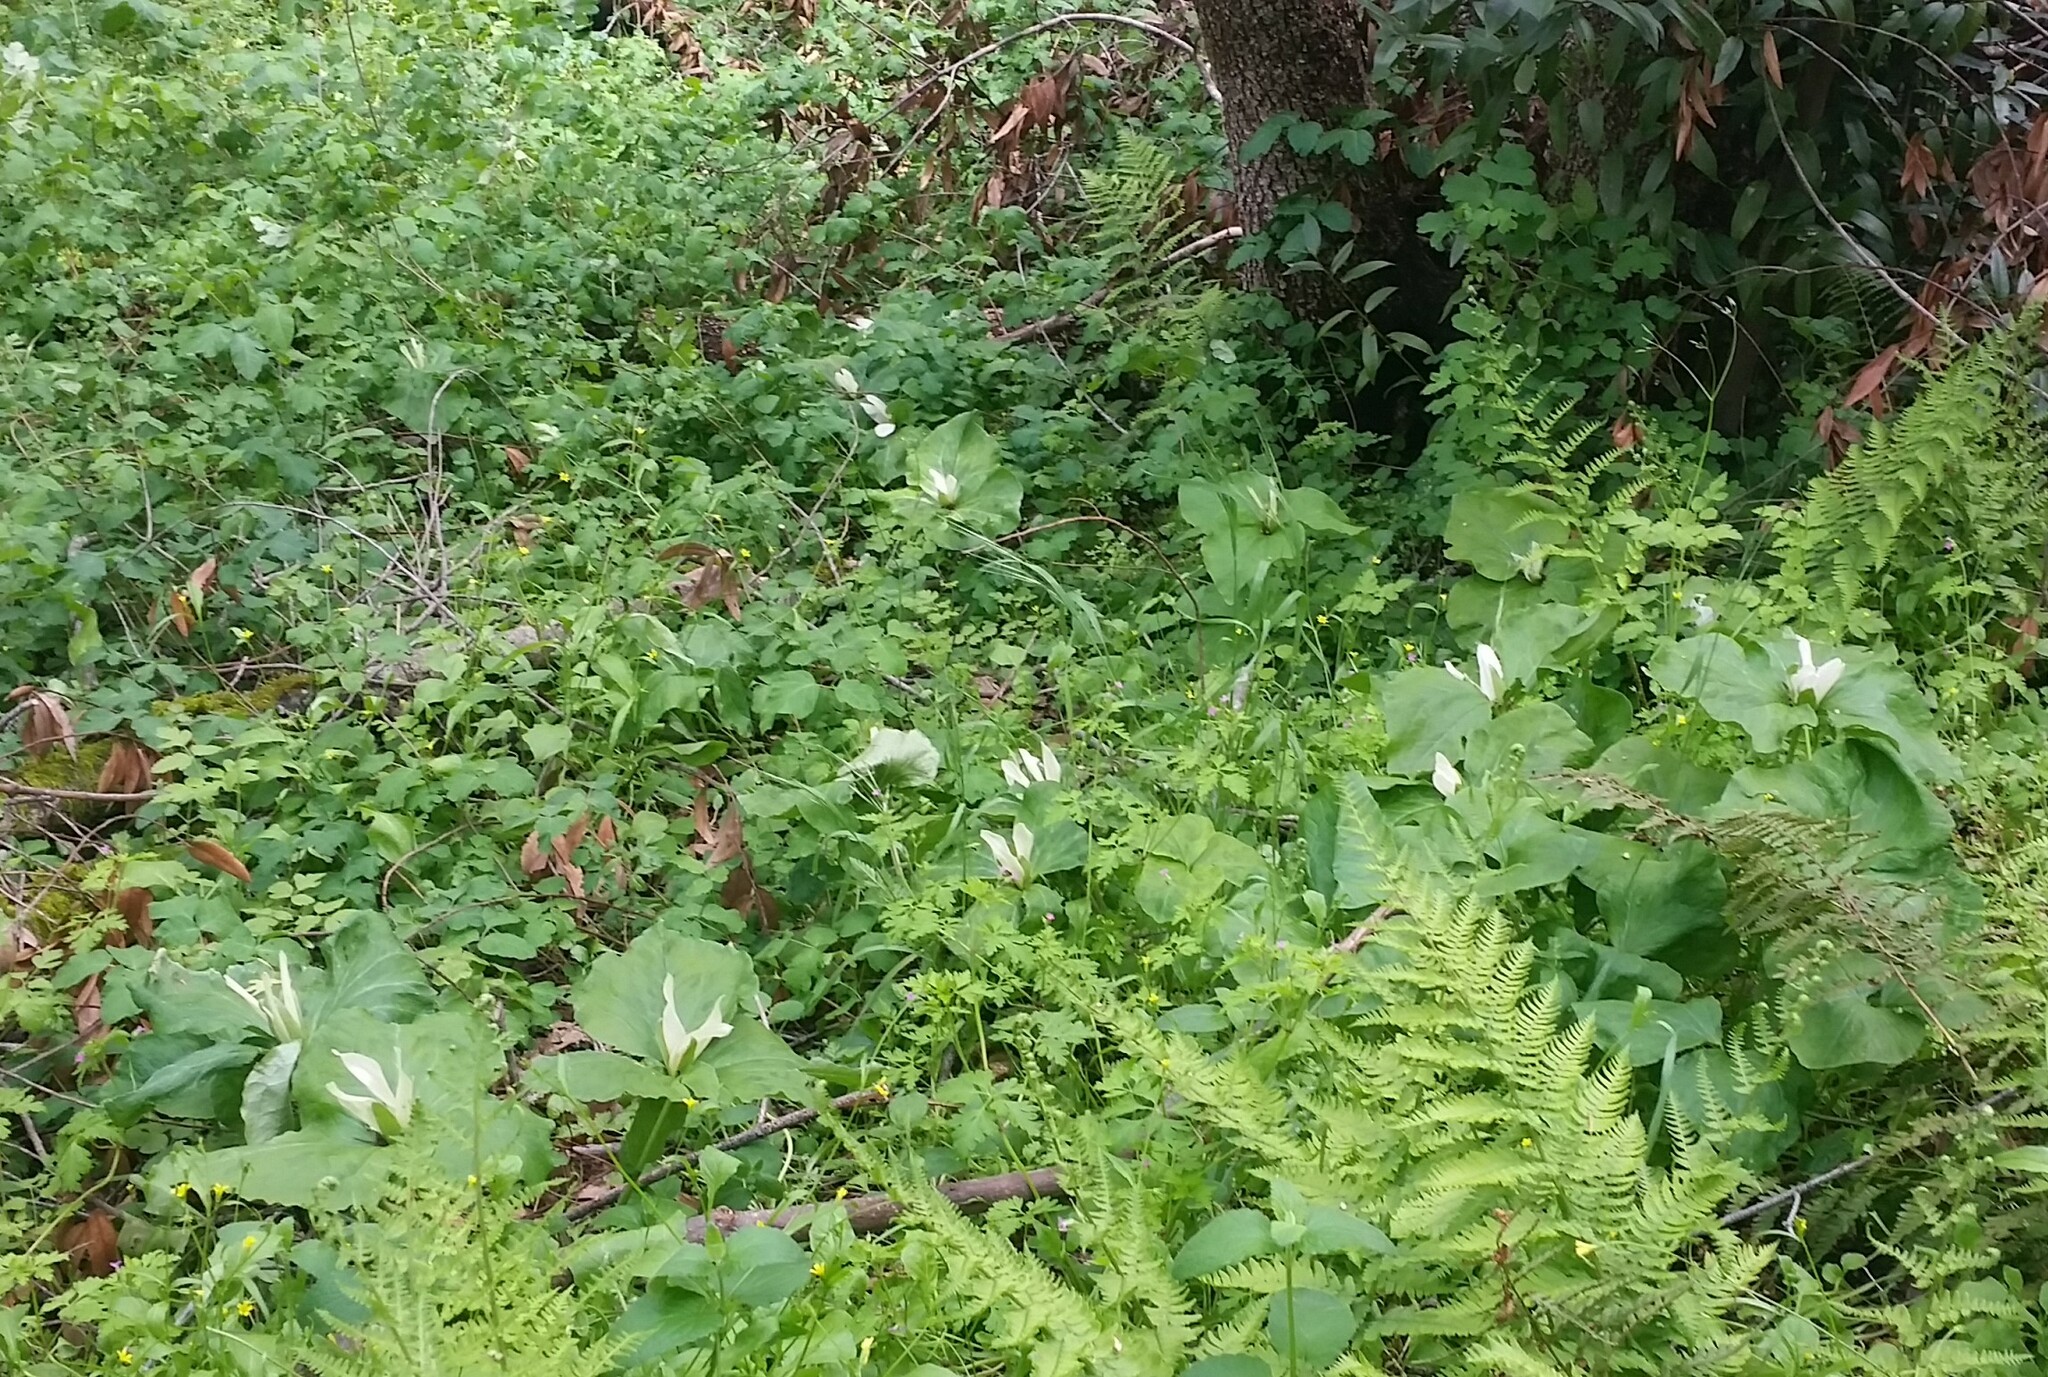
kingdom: Plantae
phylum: Tracheophyta
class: Liliopsida
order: Liliales
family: Melanthiaceae
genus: Trillium
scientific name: Trillium albidum
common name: Freeman's trillium
